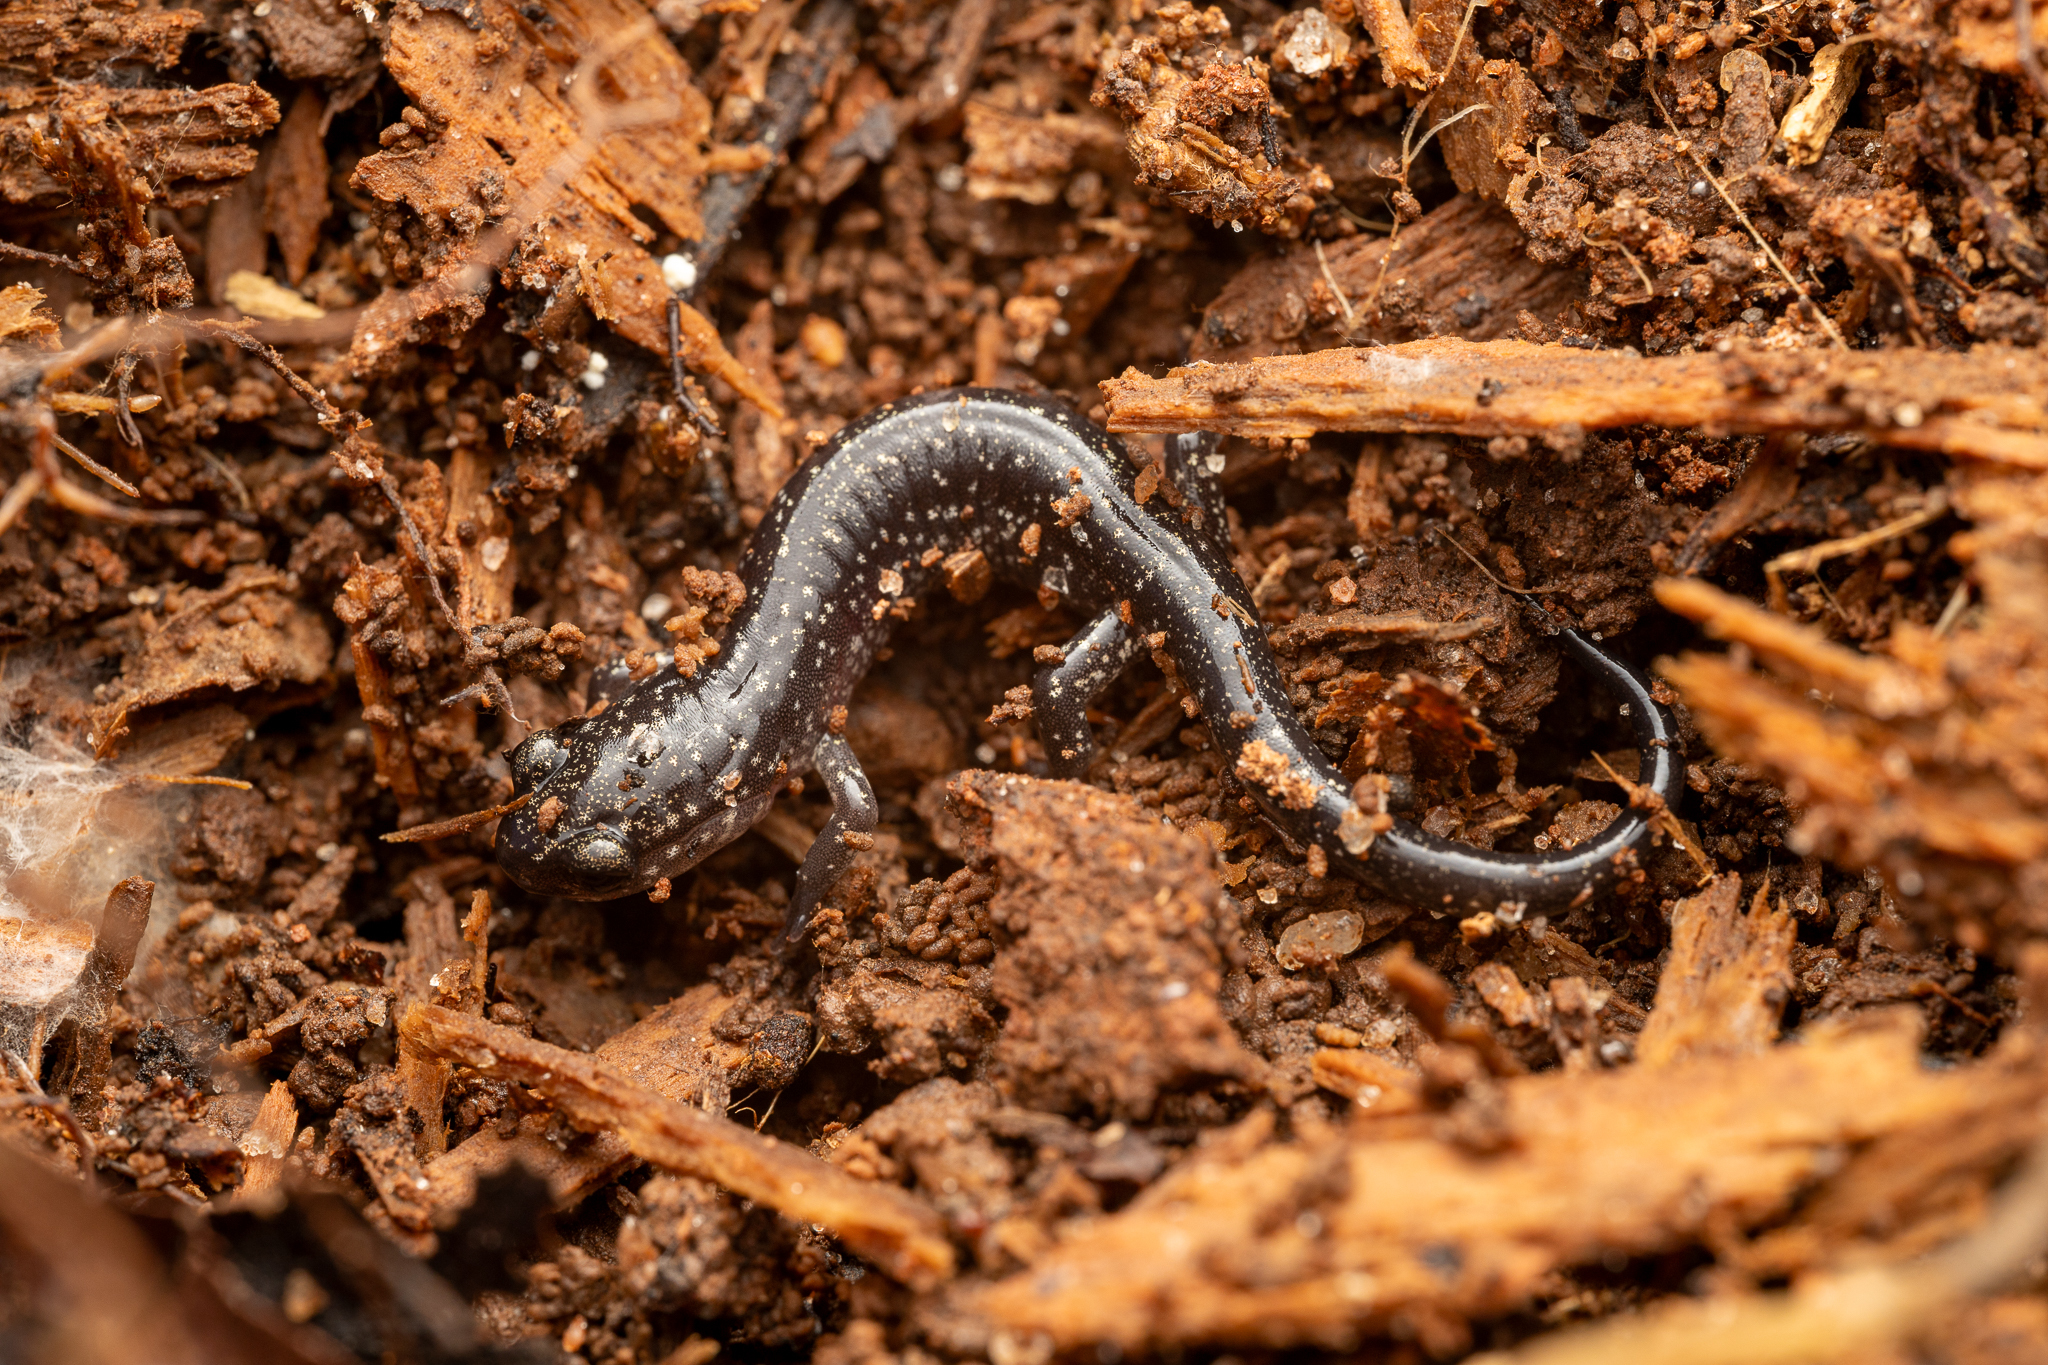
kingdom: Animalia
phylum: Chordata
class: Amphibia
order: Caudata
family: Plethodontidae
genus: Plethodon
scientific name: Plethodon glutinosus
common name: Northern slimy salamander
